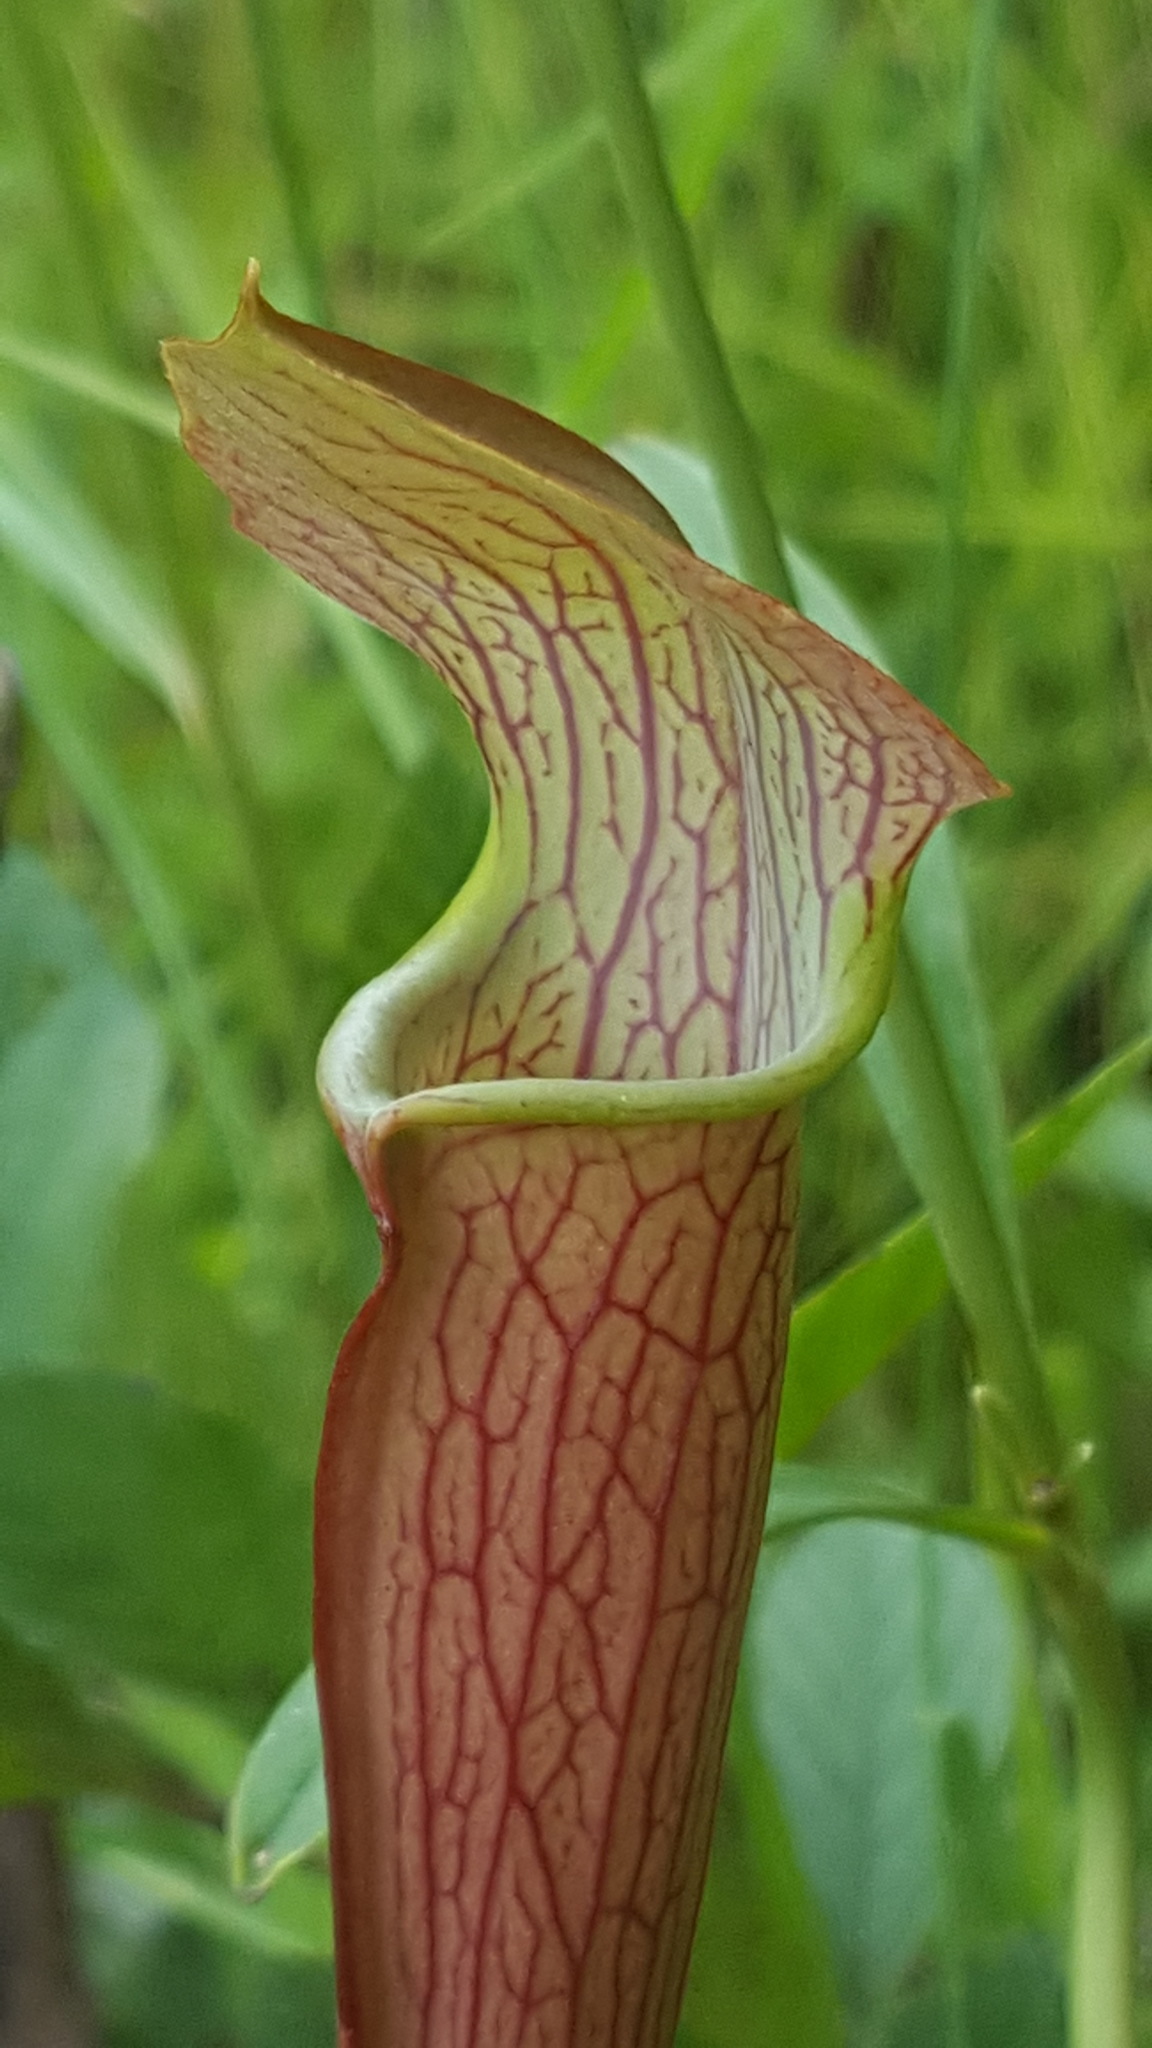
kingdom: Plantae
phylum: Tracheophyta
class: Magnoliopsida
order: Ericales
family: Sarraceniaceae
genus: Sarracenia
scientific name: Sarracenia jonesii
